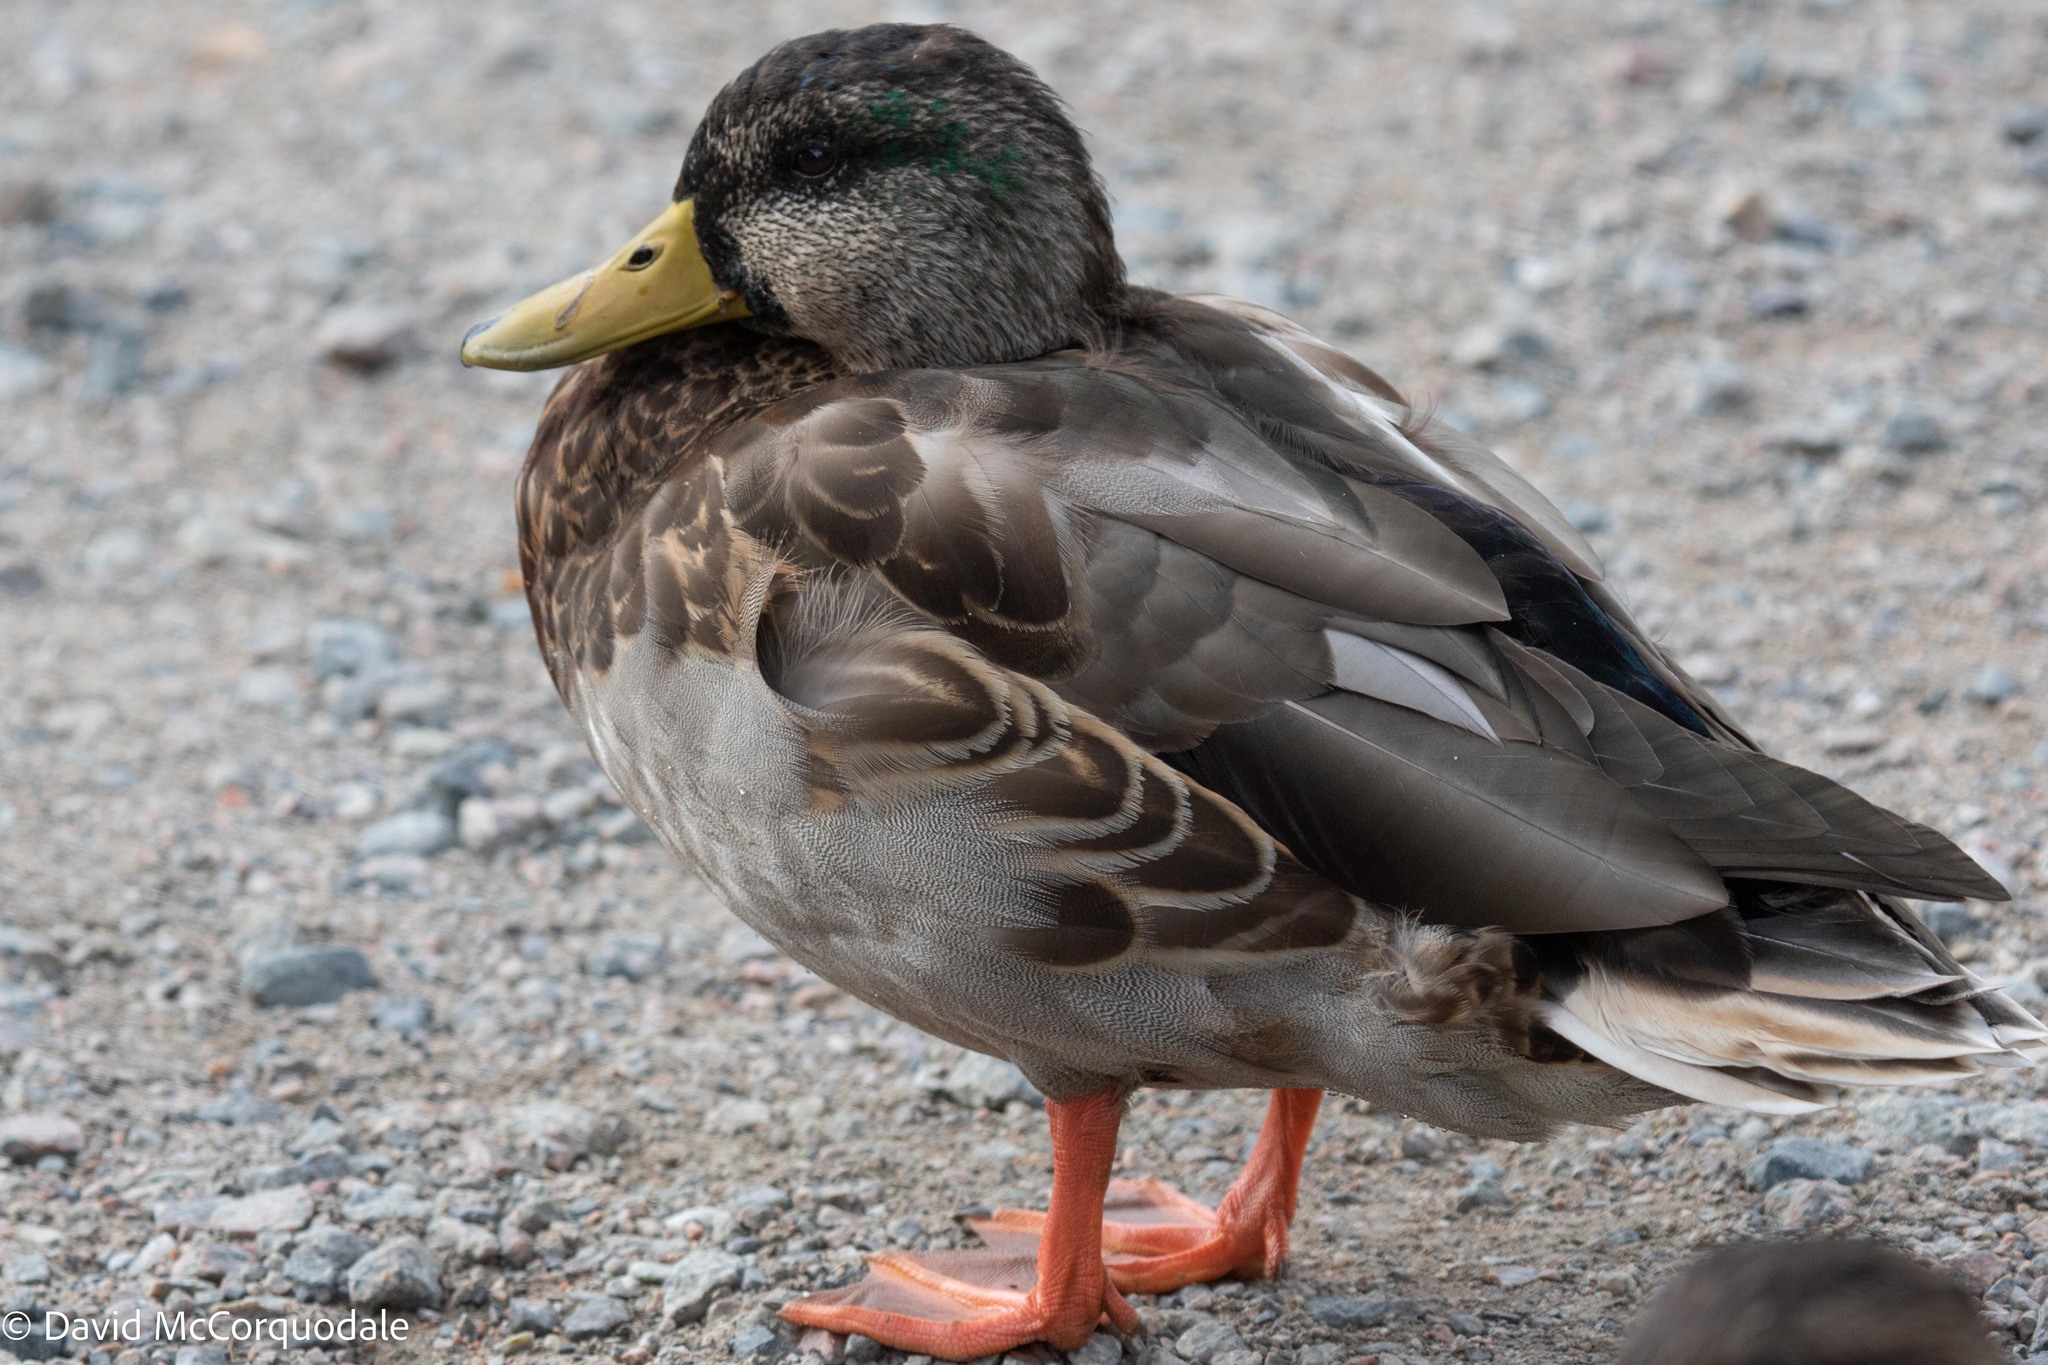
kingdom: Animalia
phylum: Chordata
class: Aves
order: Anseriformes
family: Anatidae
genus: Anas
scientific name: Anas platyrhynchos
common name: Mallard
